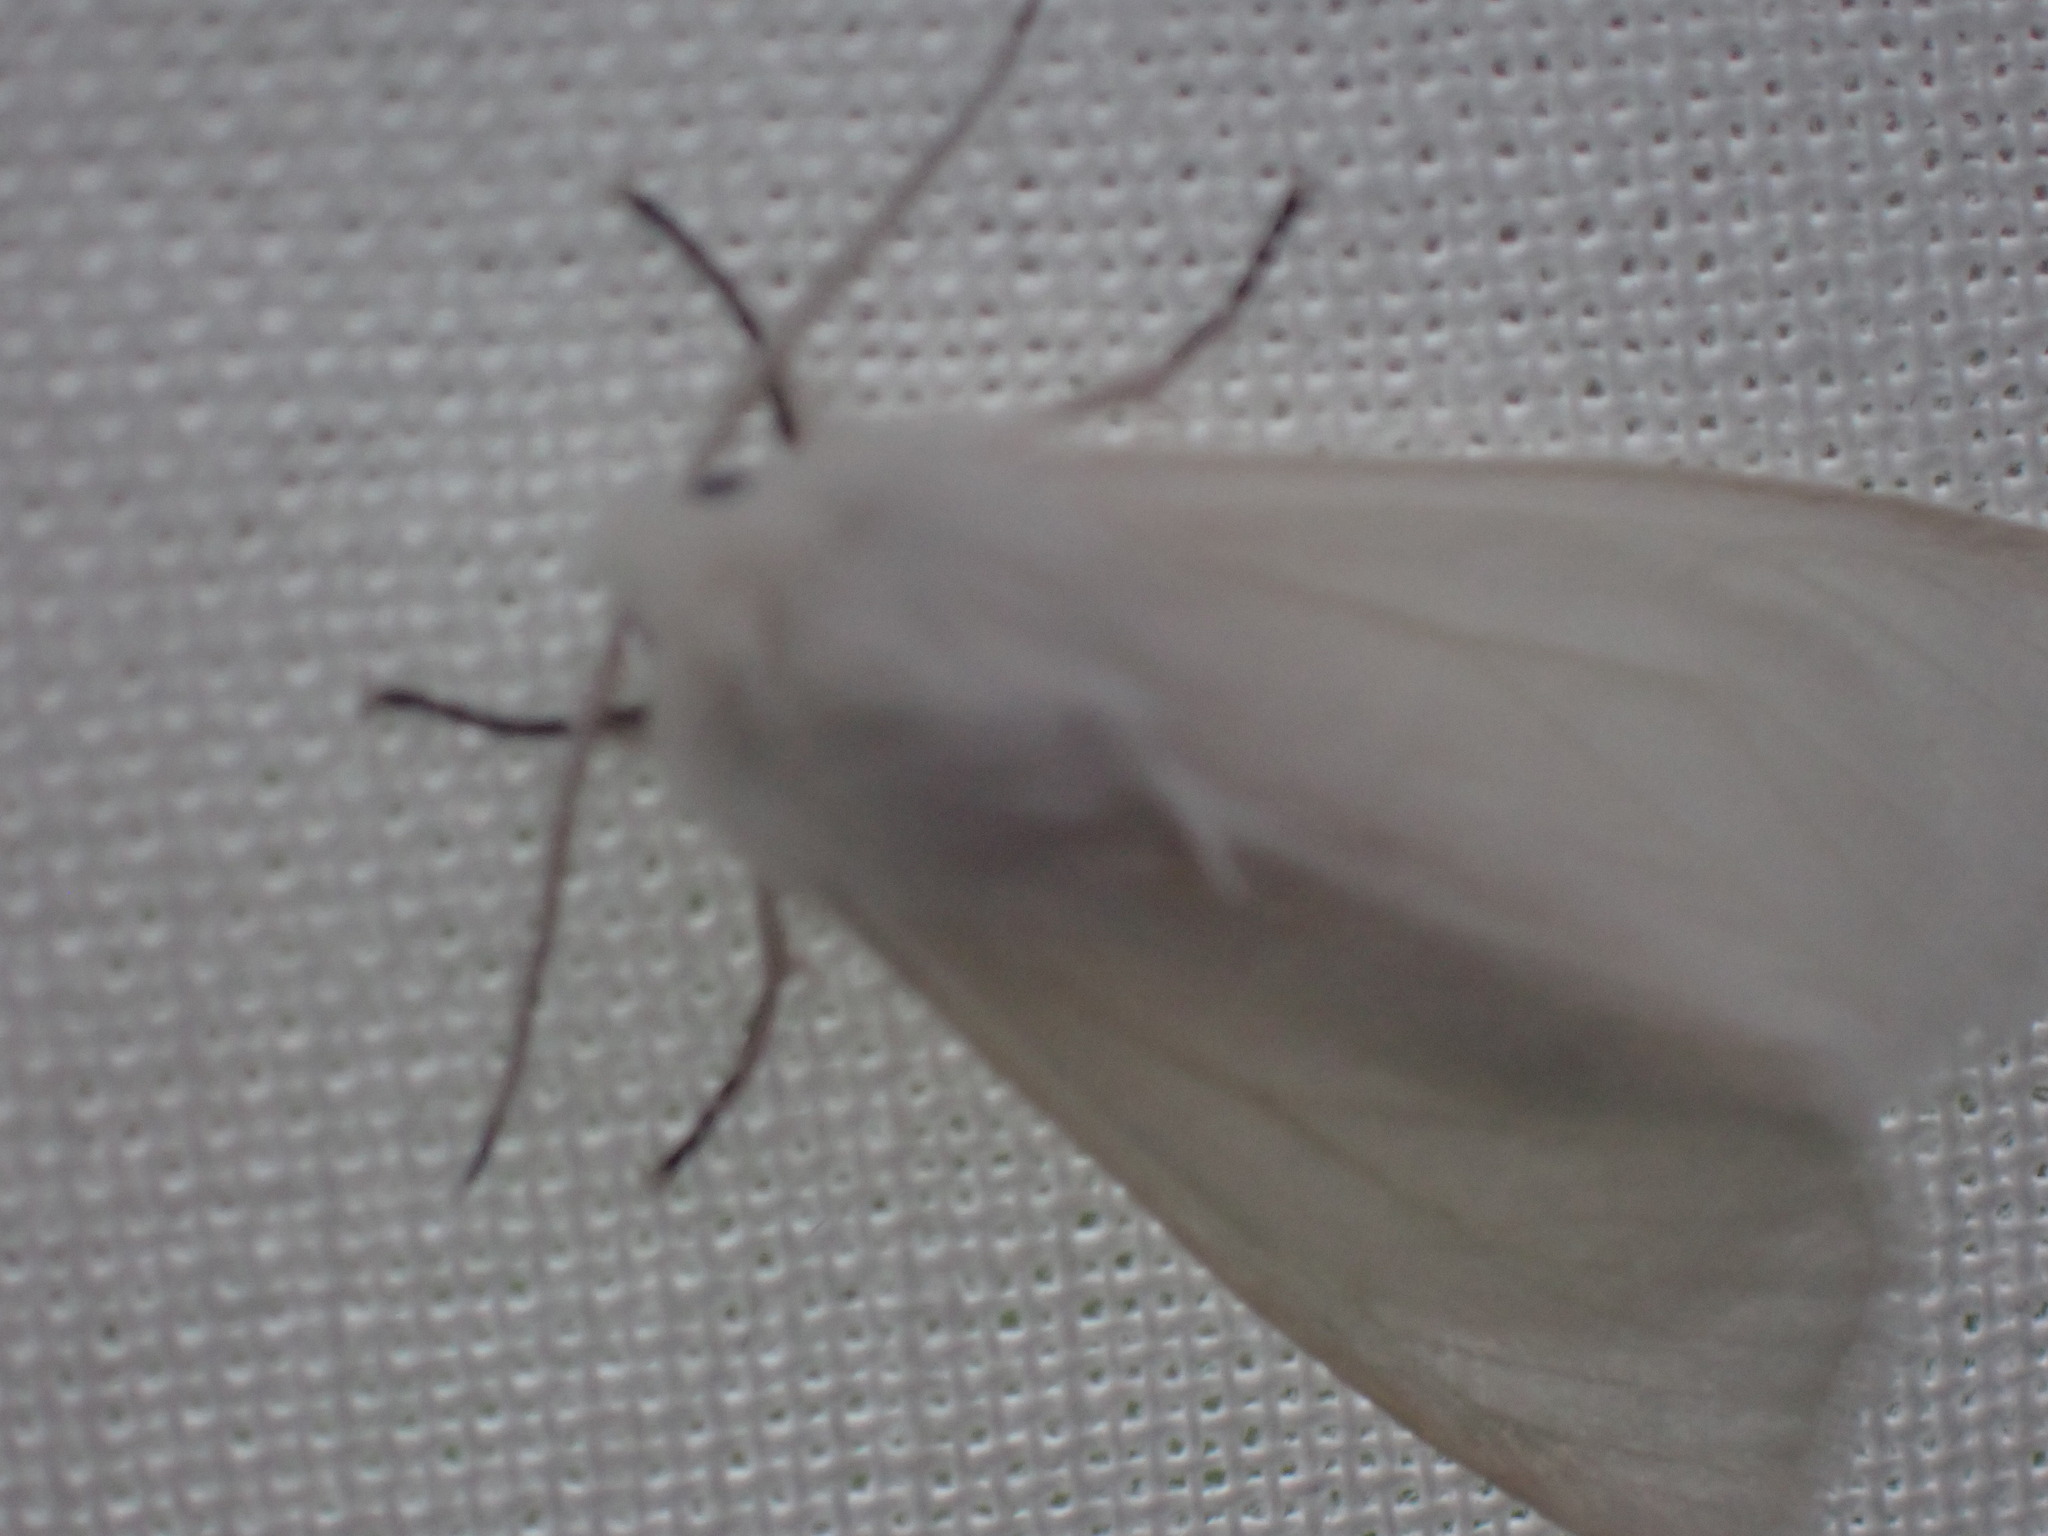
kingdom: Animalia
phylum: Arthropoda
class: Insecta
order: Lepidoptera
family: Erebidae
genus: Hyphantria
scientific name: Hyphantria cunea
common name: American white moth
